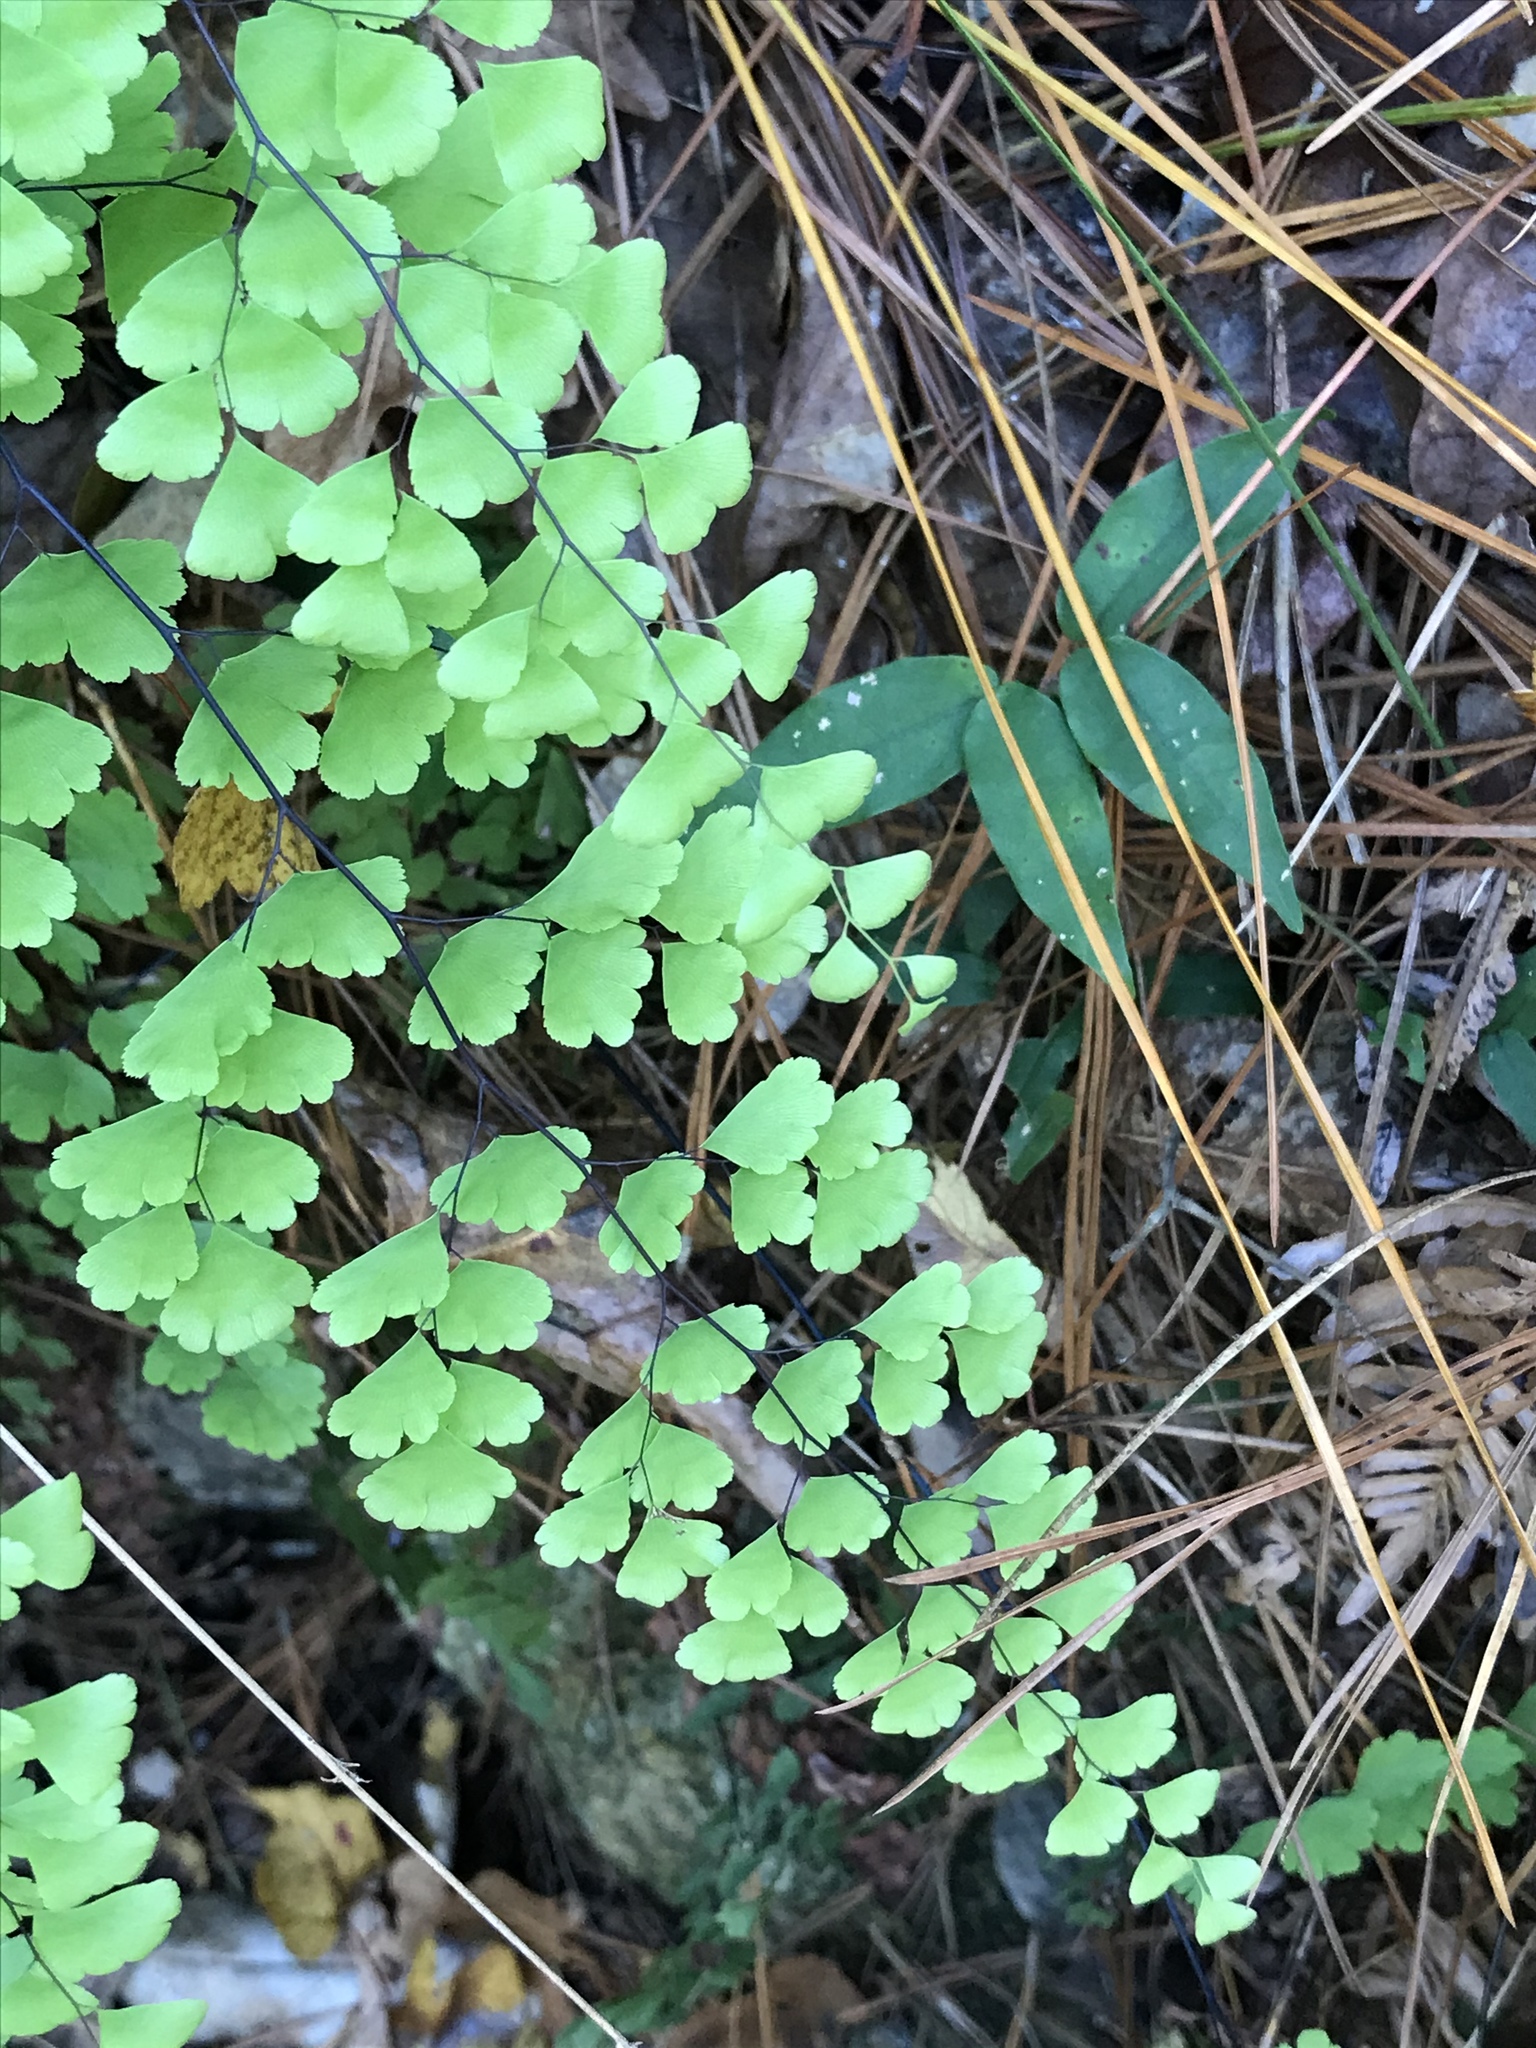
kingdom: Plantae
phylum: Tracheophyta
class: Polypodiopsida
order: Polypodiales
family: Pteridaceae
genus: Adiantum
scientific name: Adiantum capillus-veneris
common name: Maidenhair fern
